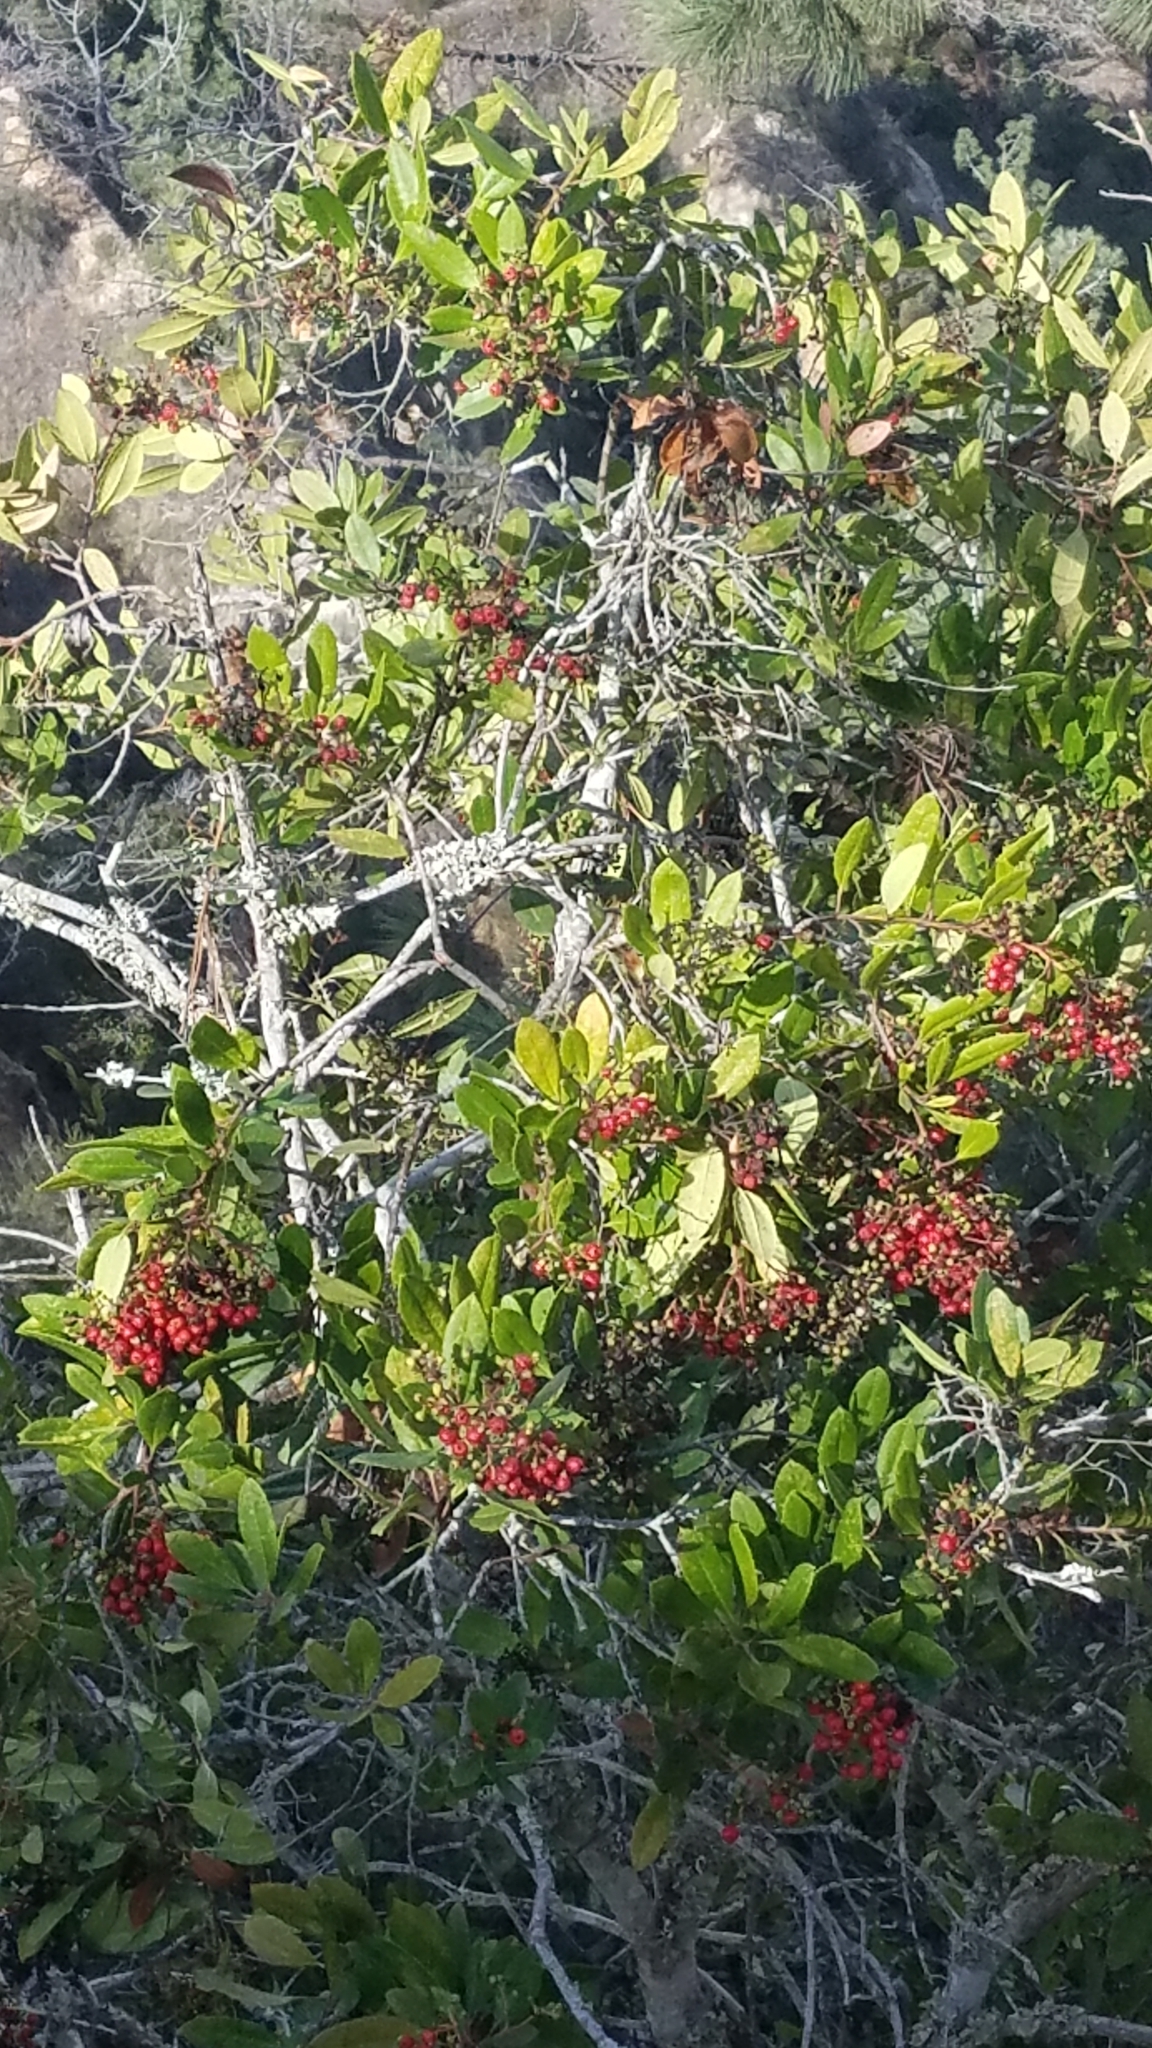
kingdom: Plantae
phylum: Tracheophyta
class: Magnoliopsida
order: Rosales
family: Rosaceae
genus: Heteromeles
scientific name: Heteromeles arbutifolia
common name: California-holly
